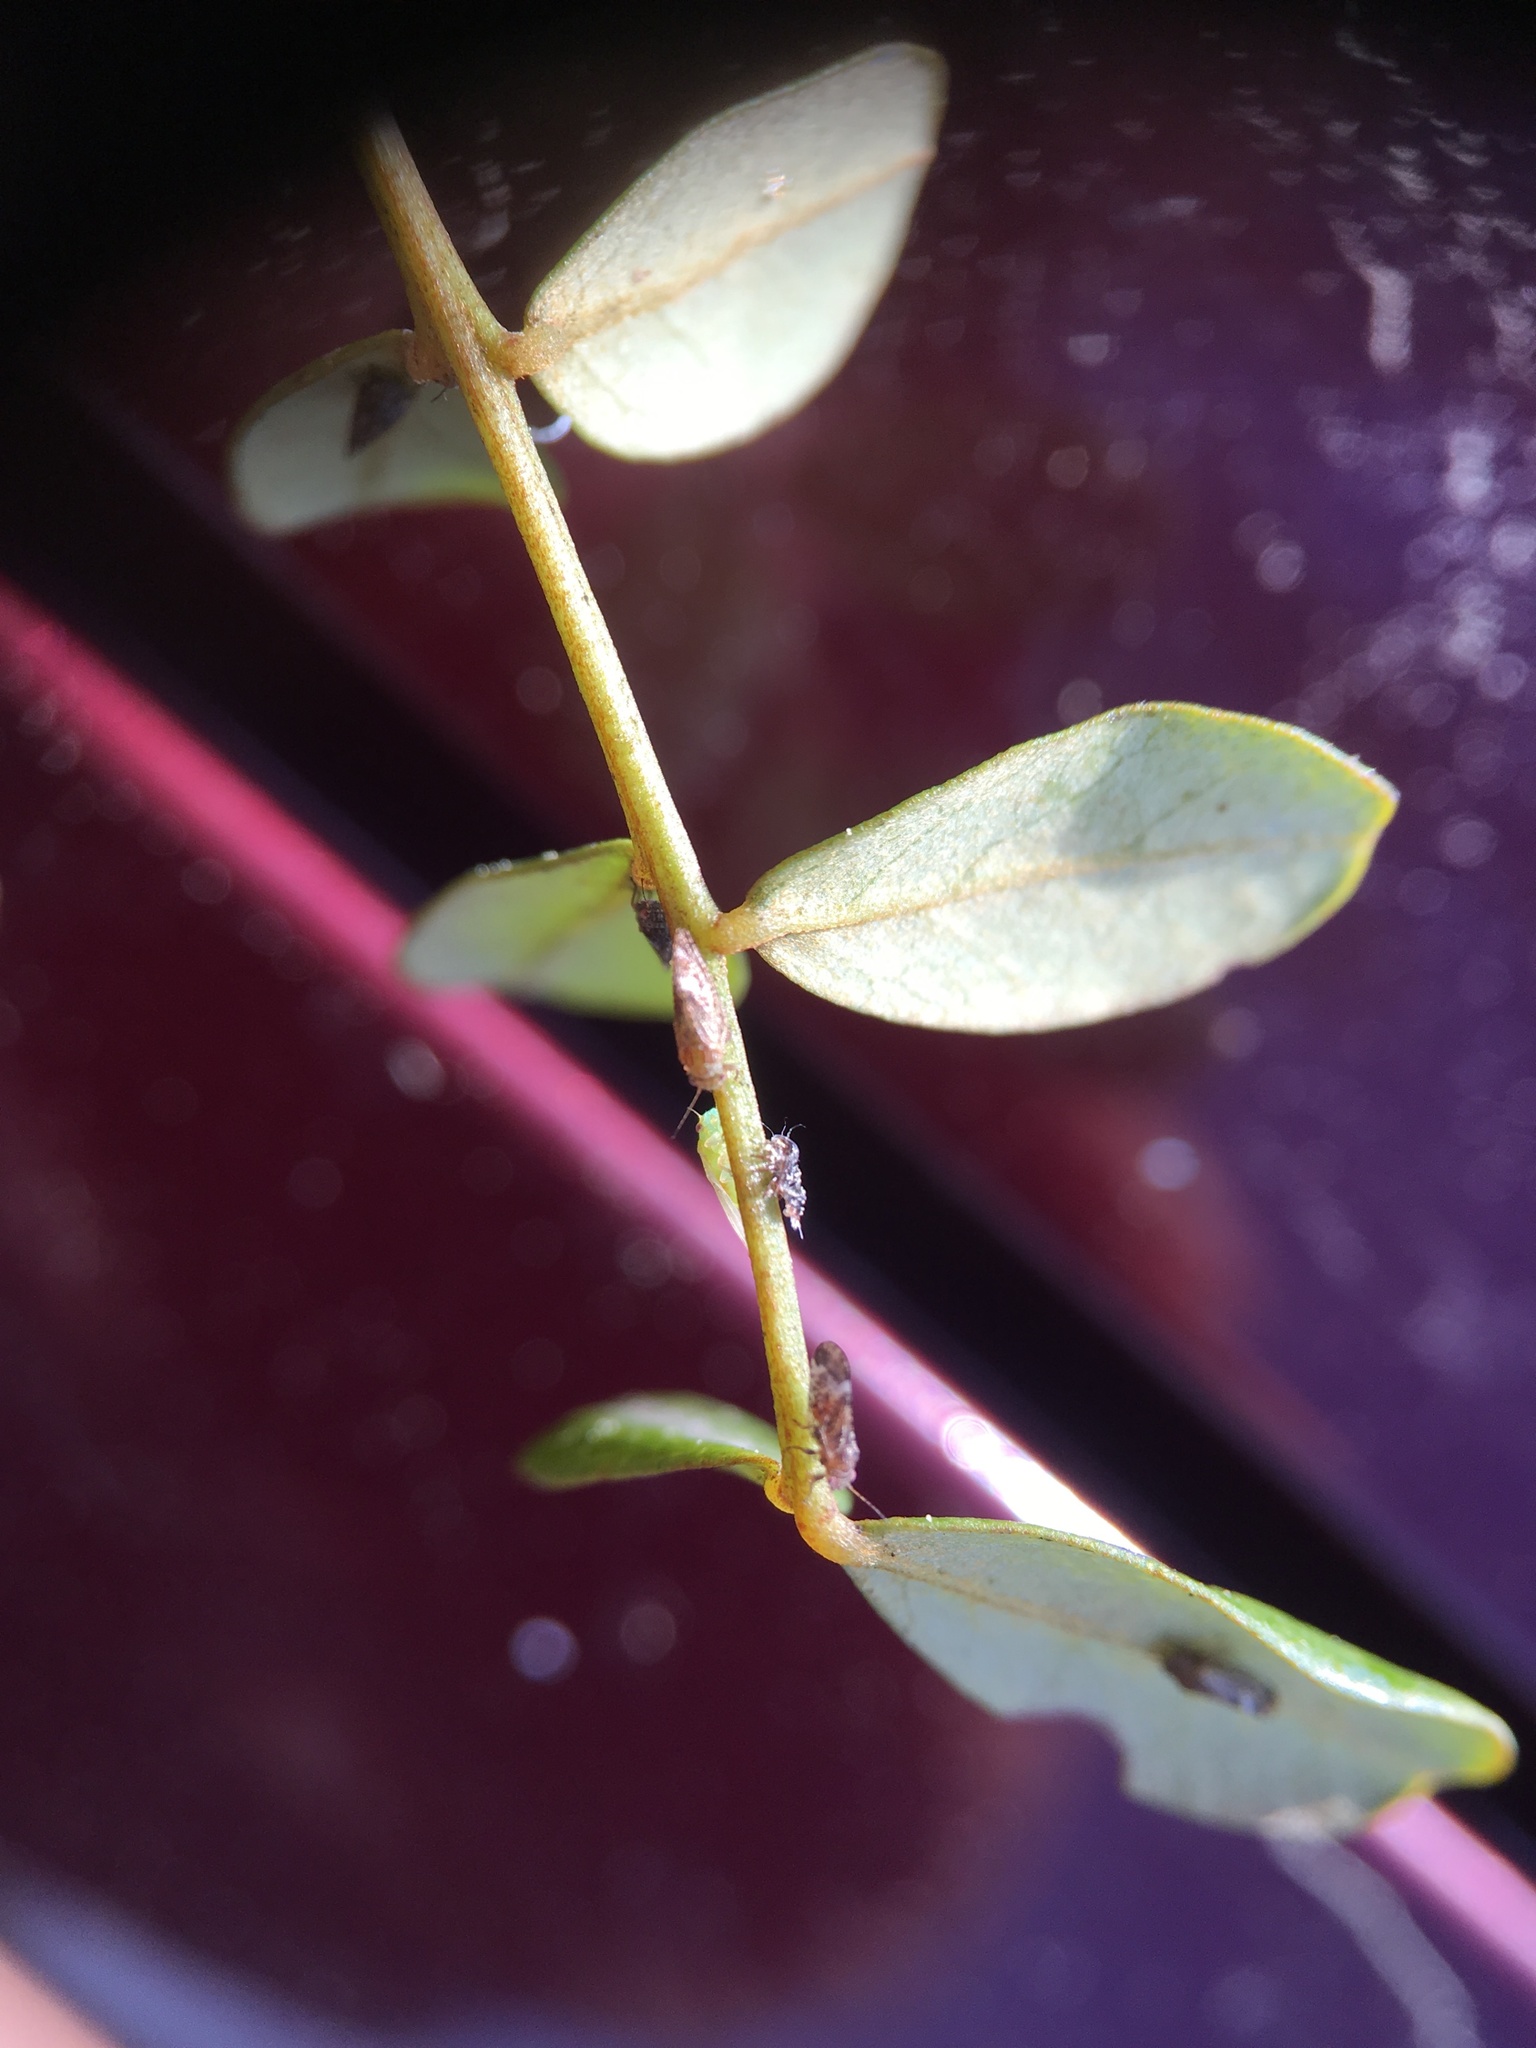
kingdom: Animalia
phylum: Arthropoda
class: Insecta
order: Hemiptera
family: Psyllidae
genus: Acizzia
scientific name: Acizzia apicalis
